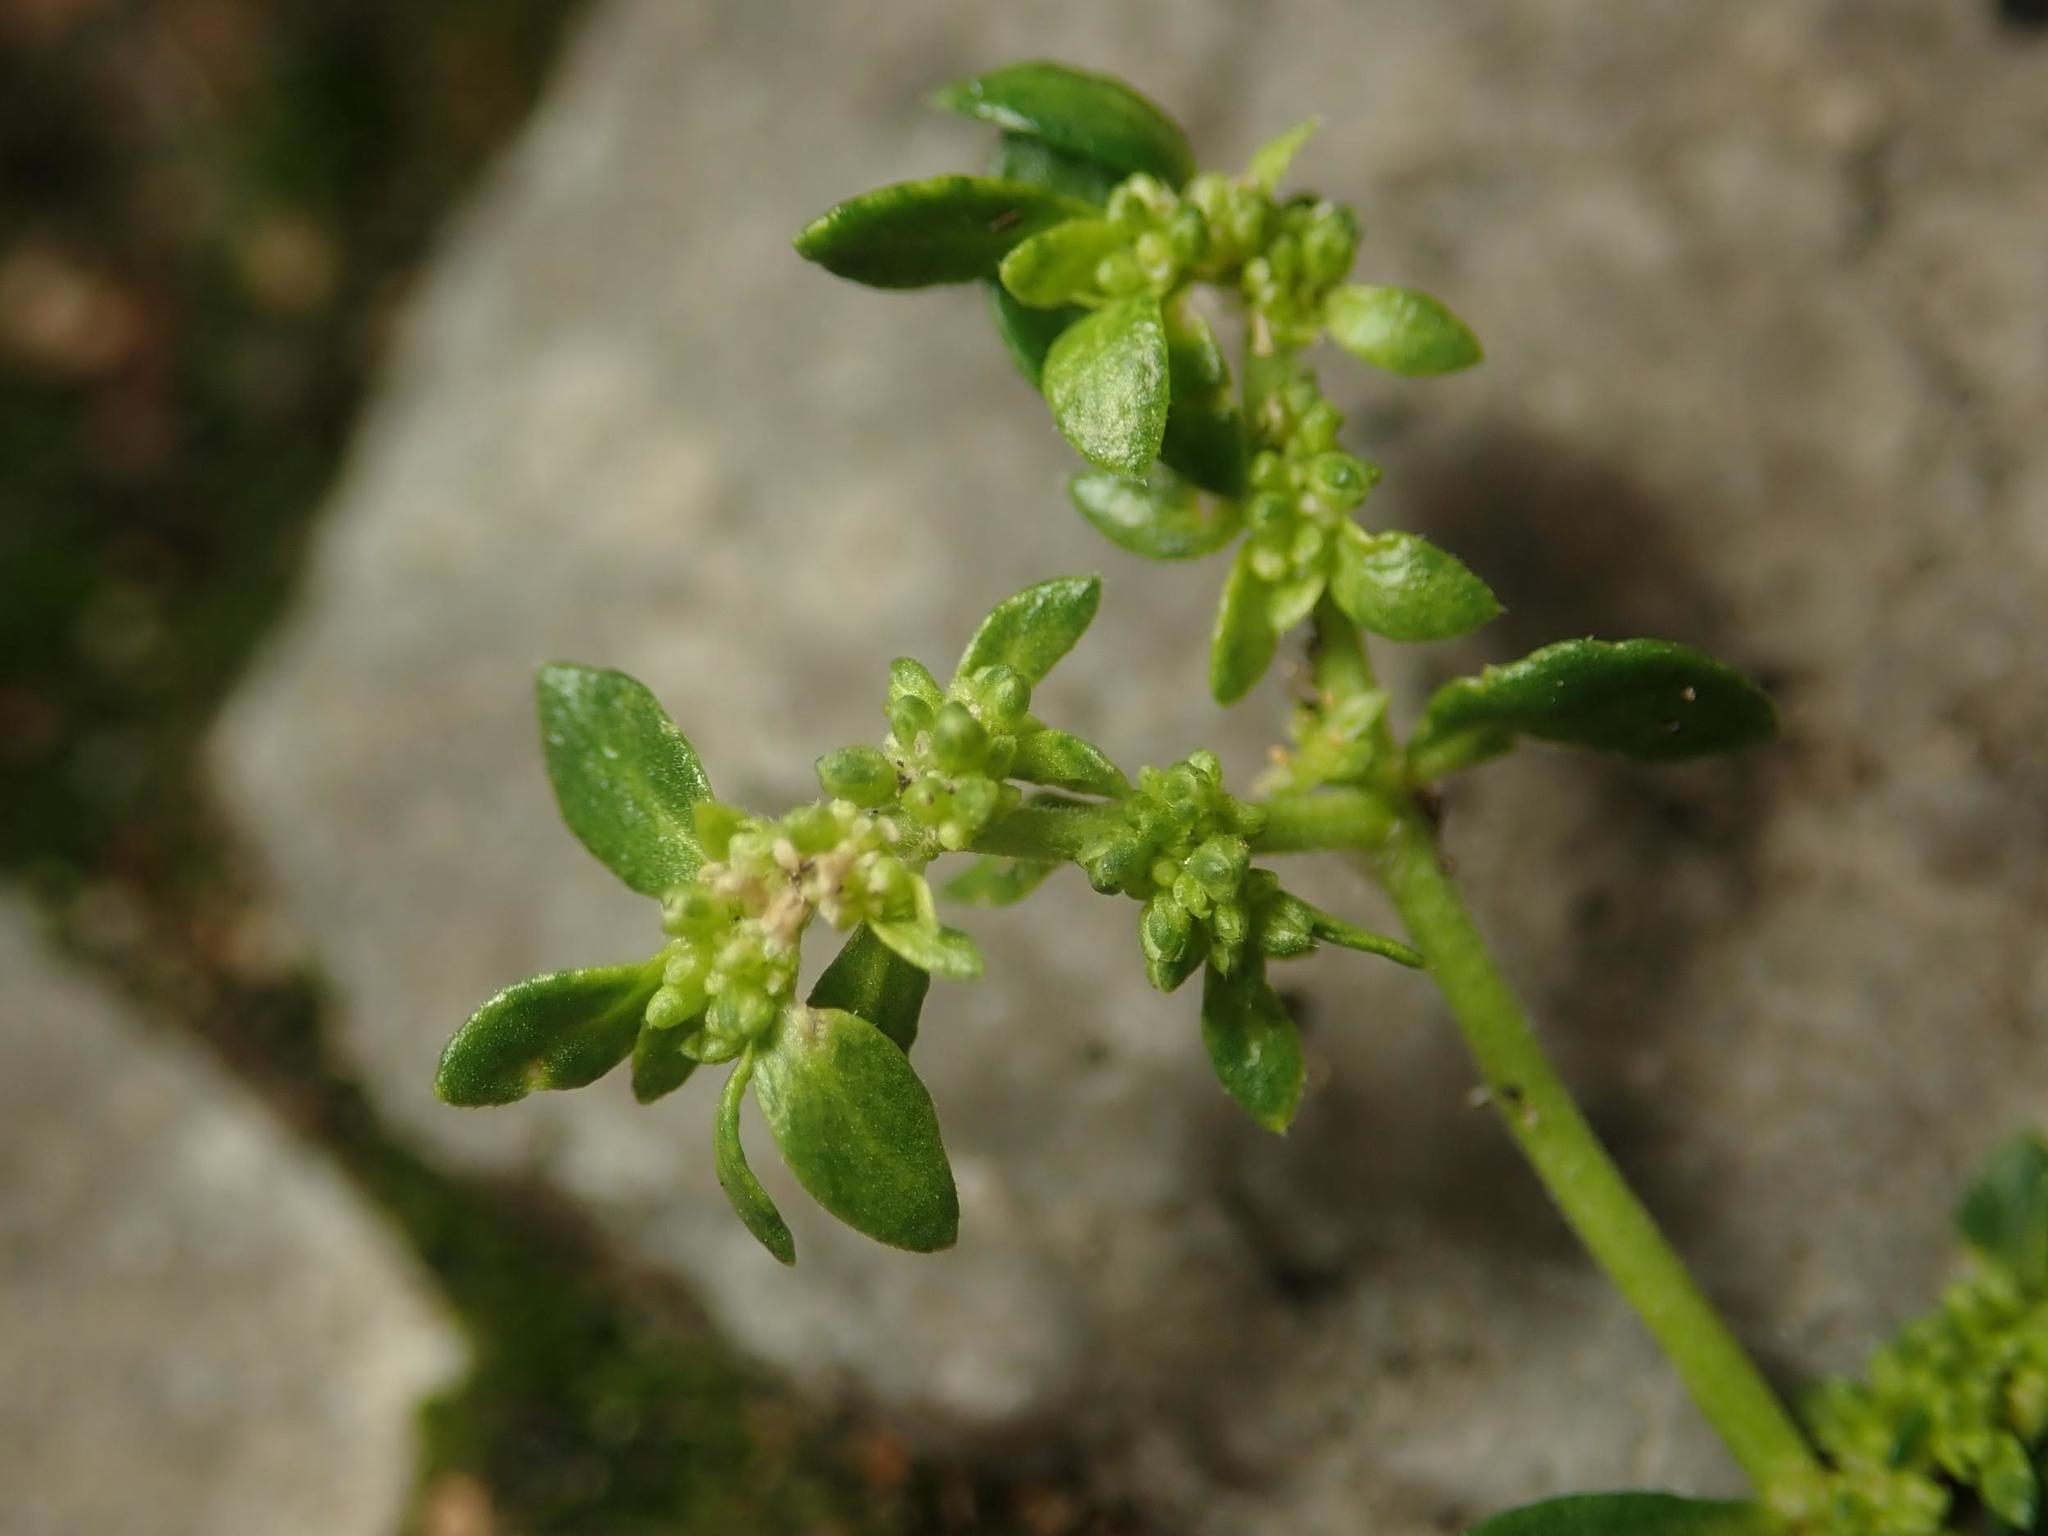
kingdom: Plantae
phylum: Tracheophyta
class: Magnoliopsida
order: Caryophyllales
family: Caryophyllaceae
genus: Herniaria
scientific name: Herniaria glabra
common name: Smooth rupturewort
